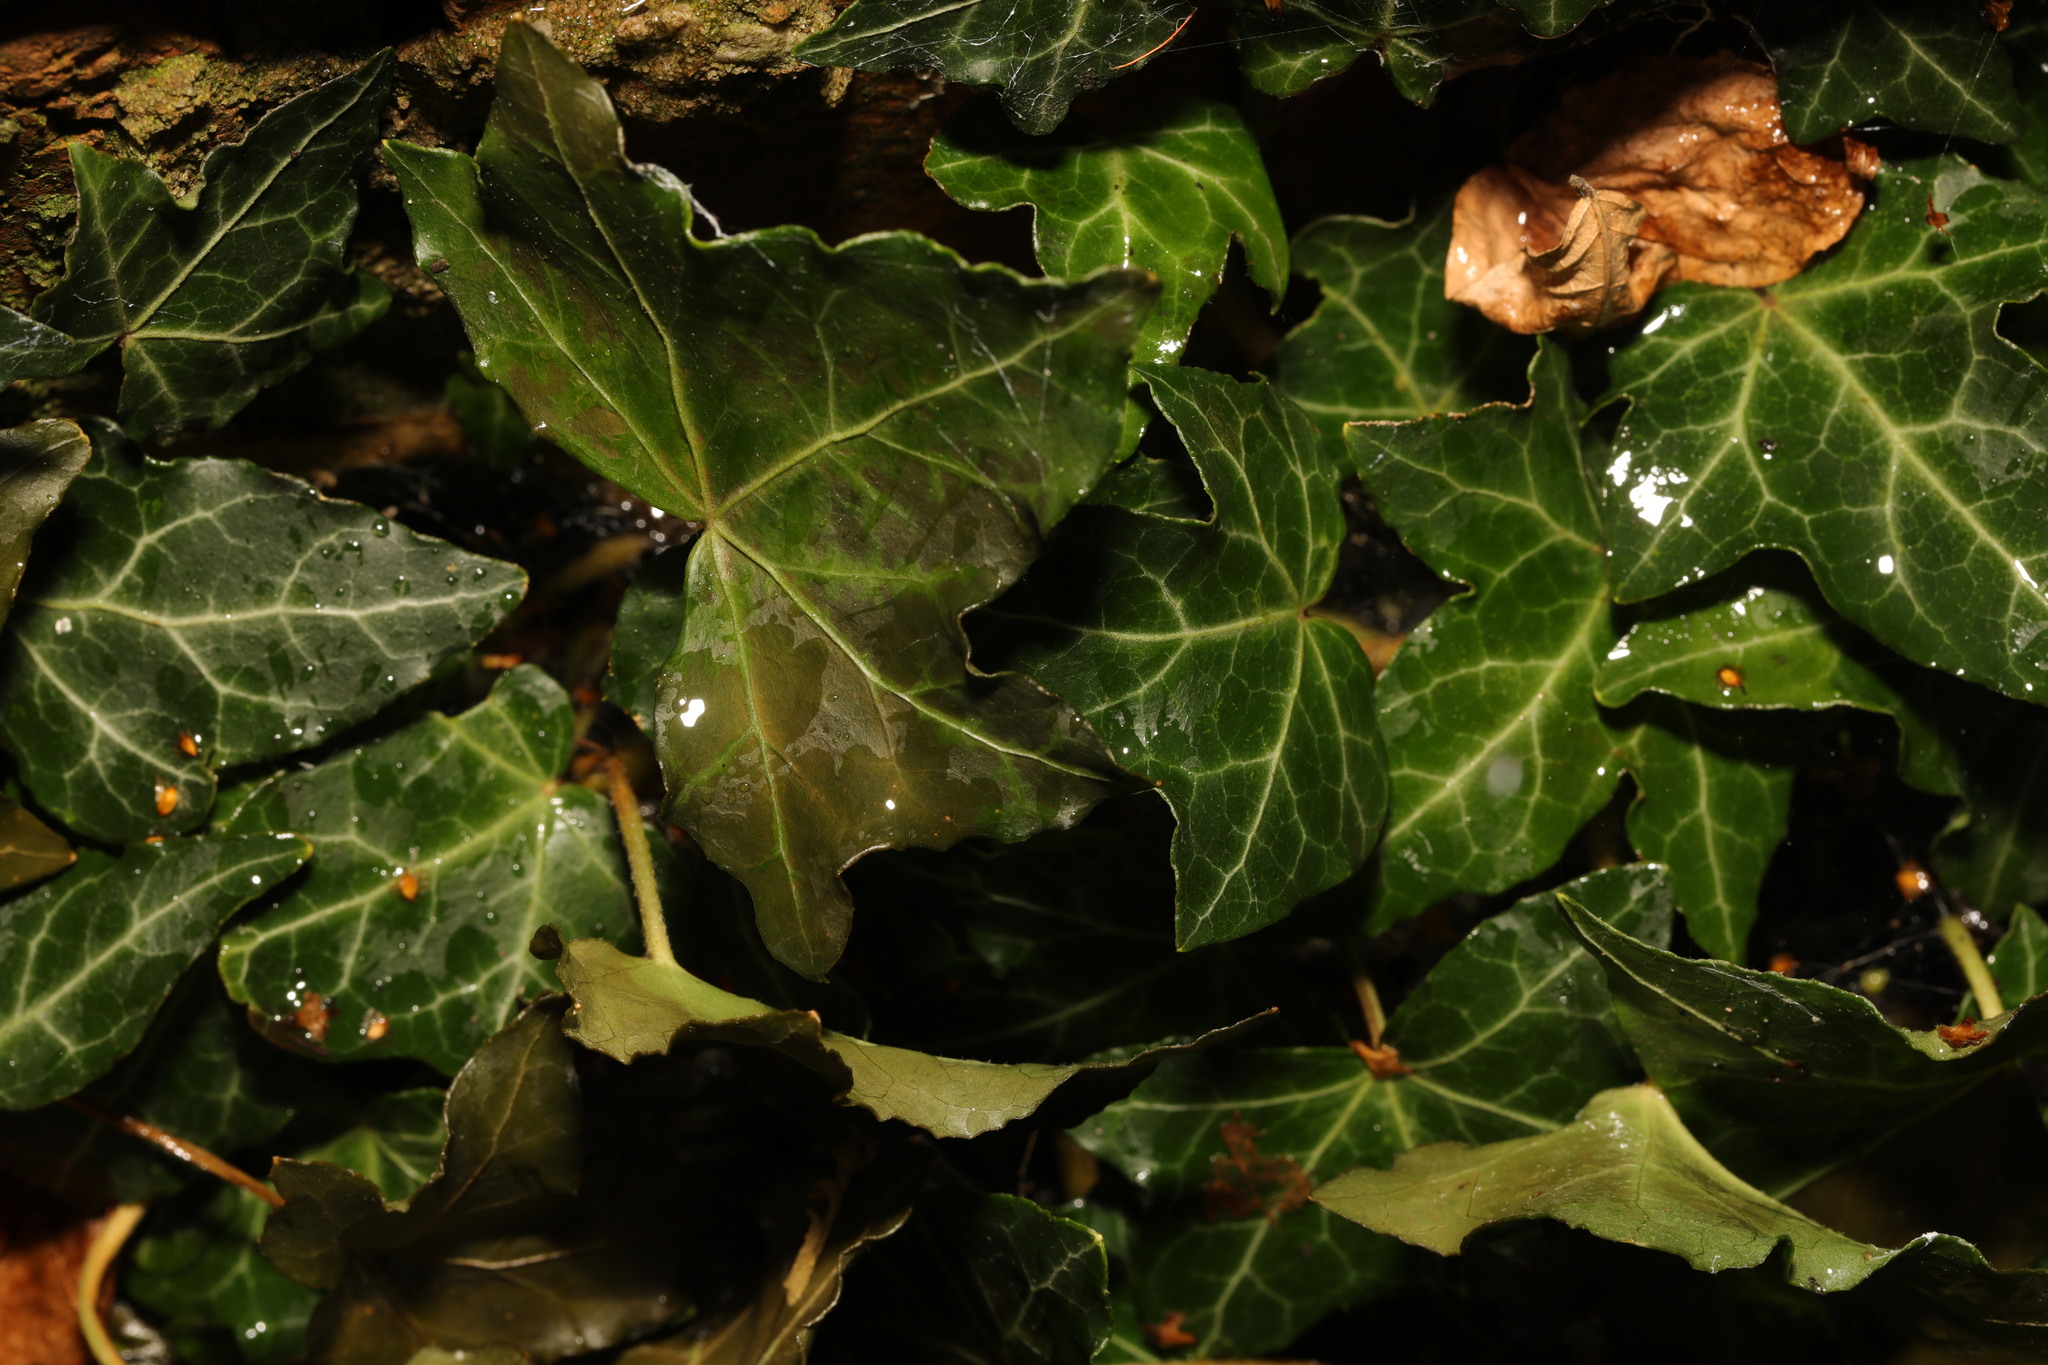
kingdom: Plantae
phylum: Tracheophyta
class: Magnoliopsida
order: Apiales
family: Araliaceae
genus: Hedera
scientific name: Hedera helix
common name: Ivy
